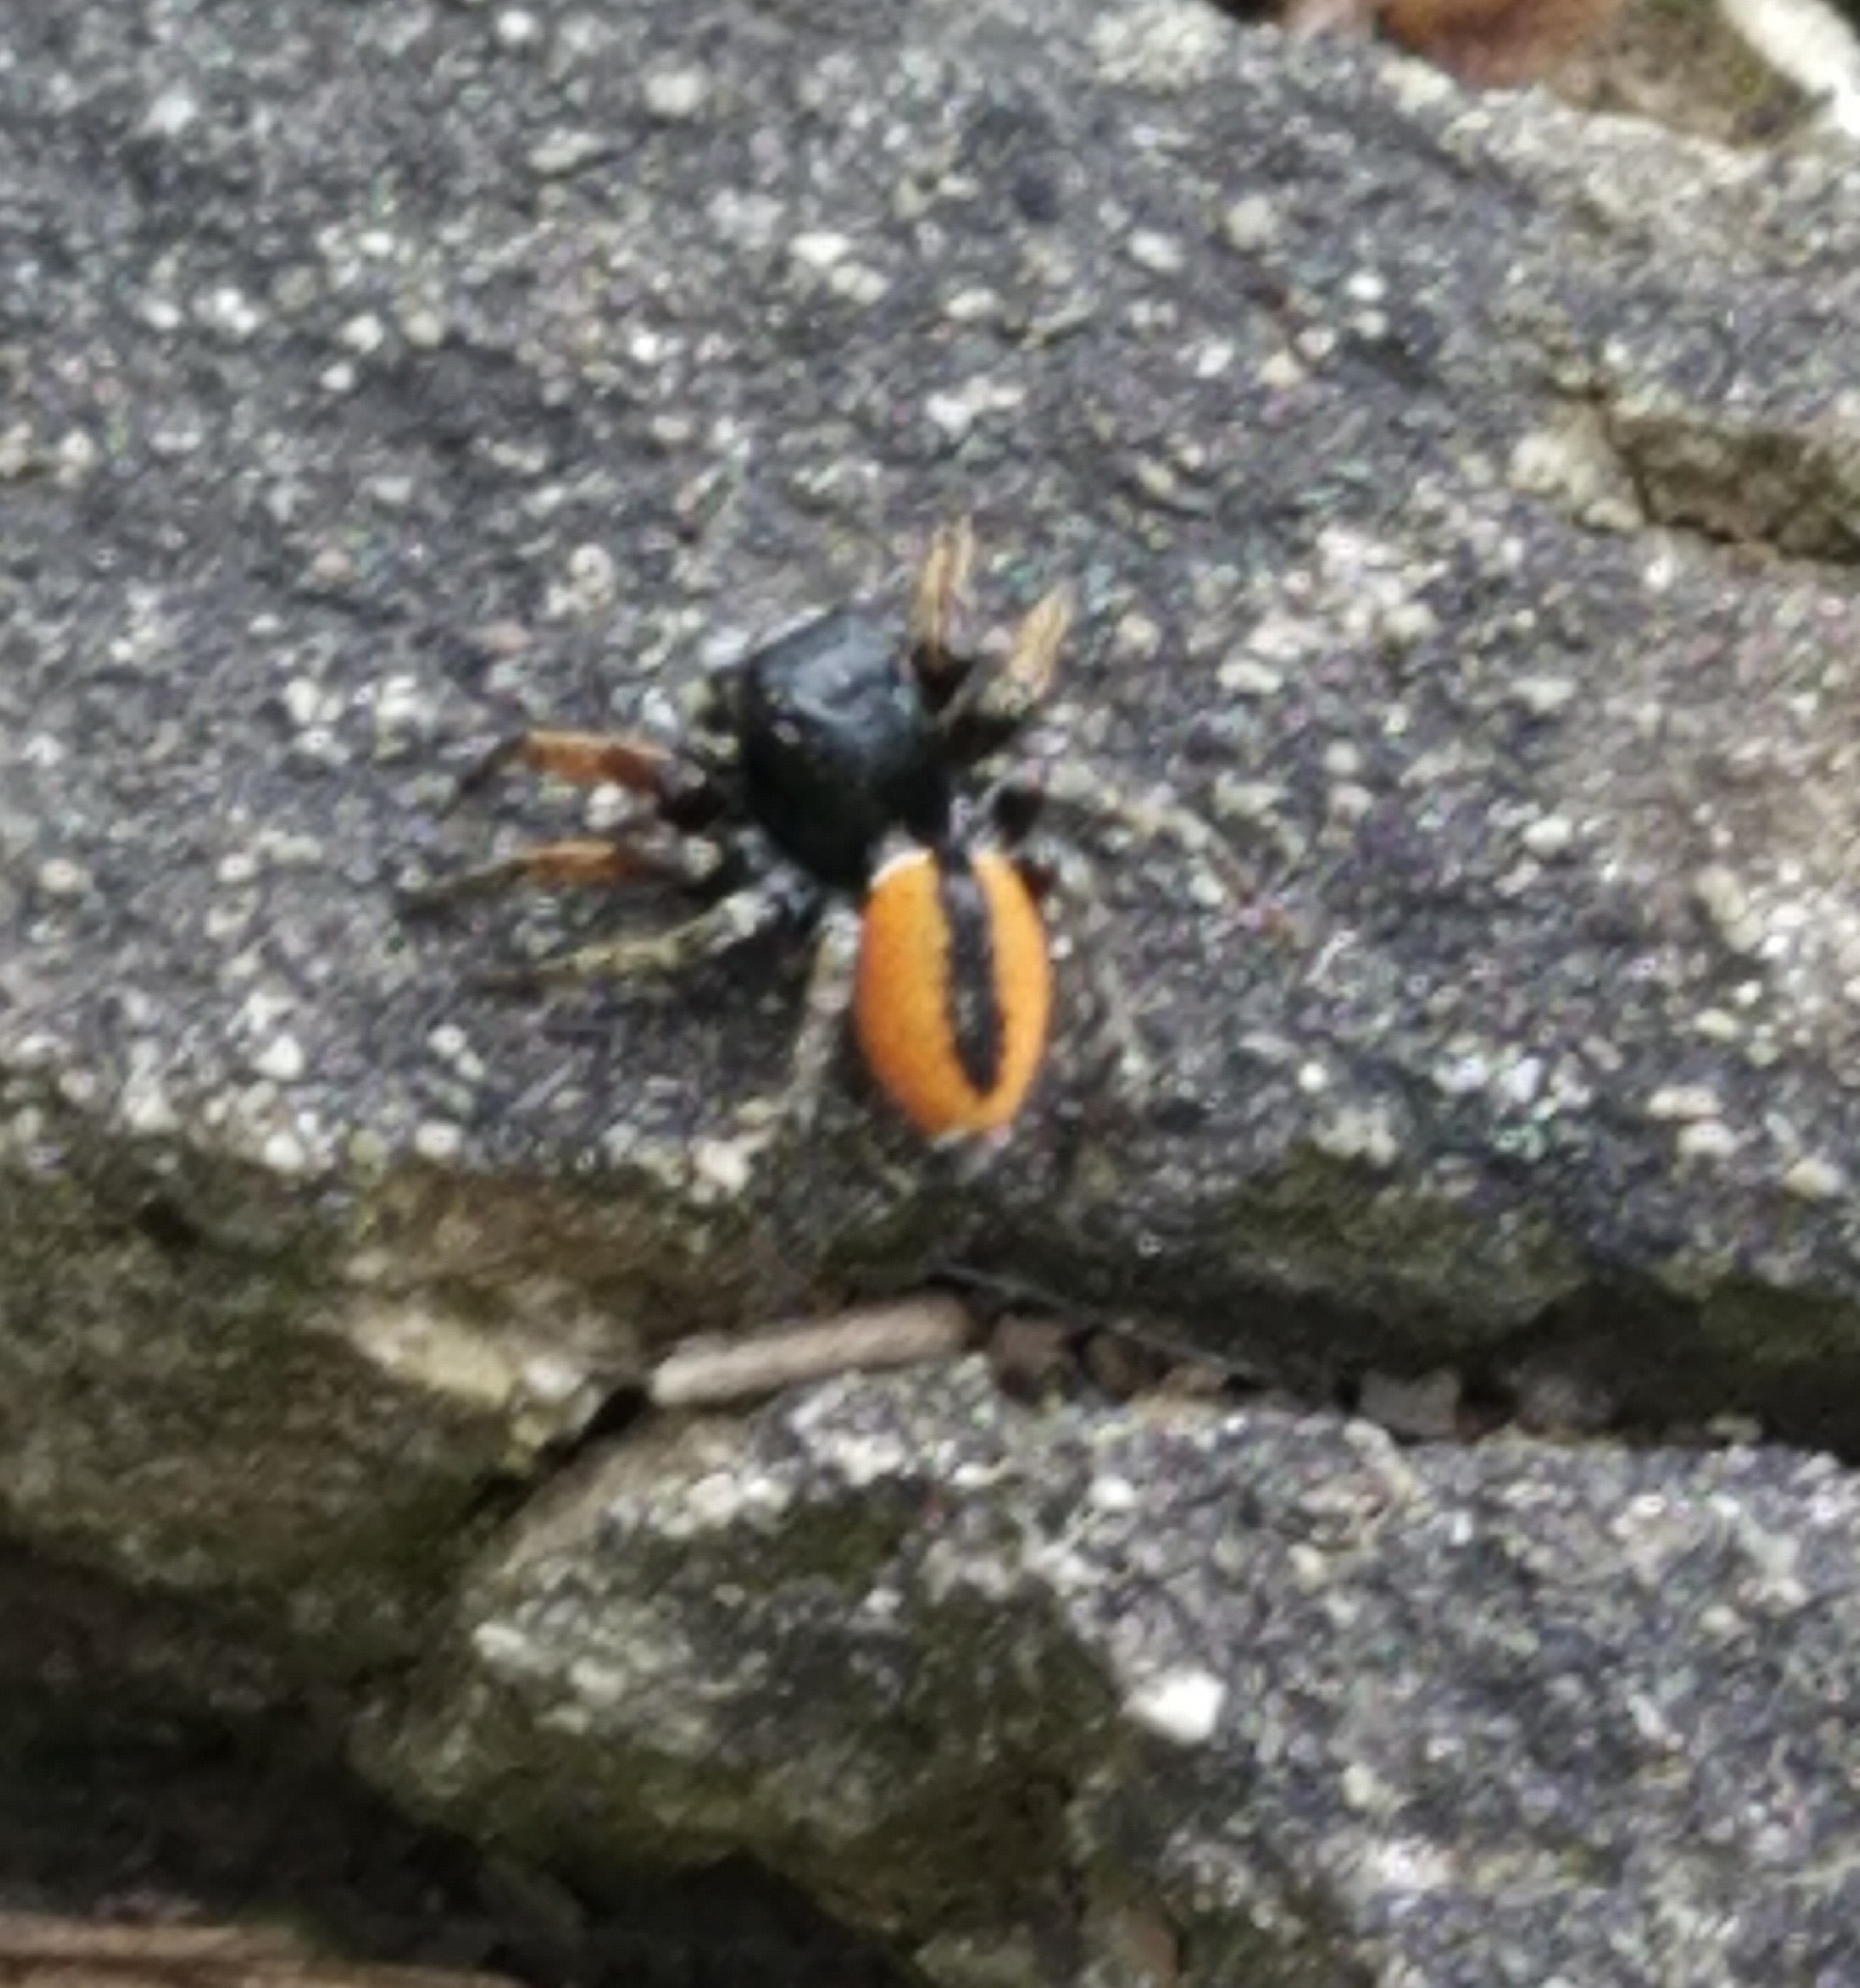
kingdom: Animalia
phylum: Arthropoda
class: Arachnida
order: Araneae
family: Salticidae
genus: Philaeus
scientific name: Philaeus chrysops
